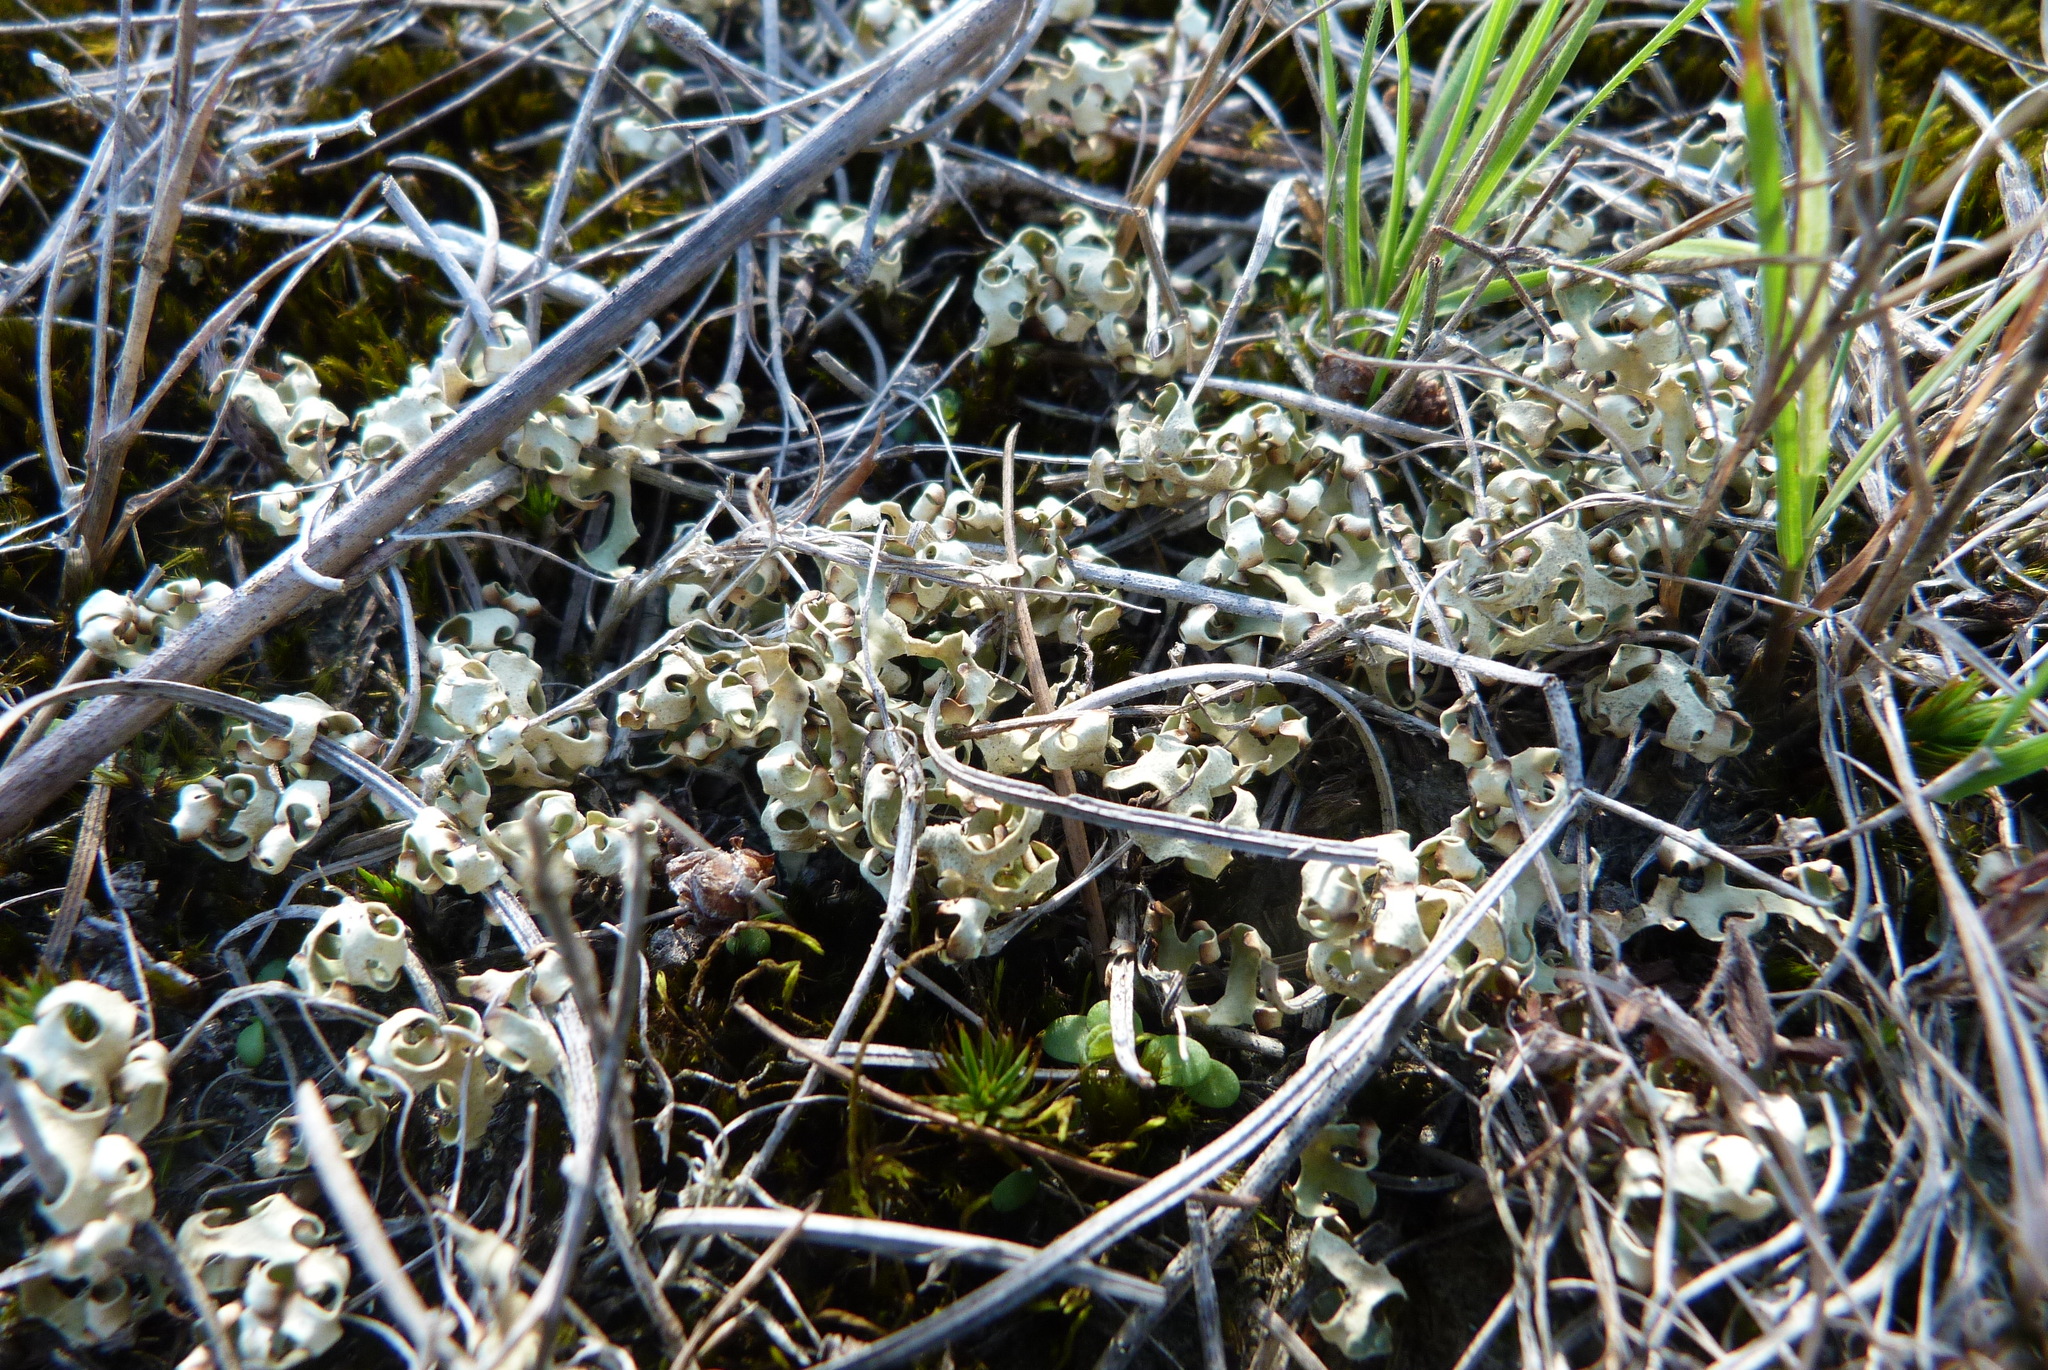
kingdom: Fungi
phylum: Ascomycota
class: Lecanoromycetes
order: Lecanorales
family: Parmeliaceae
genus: Xanthoparmelia
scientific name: Xanthoparmelia semiviridis
